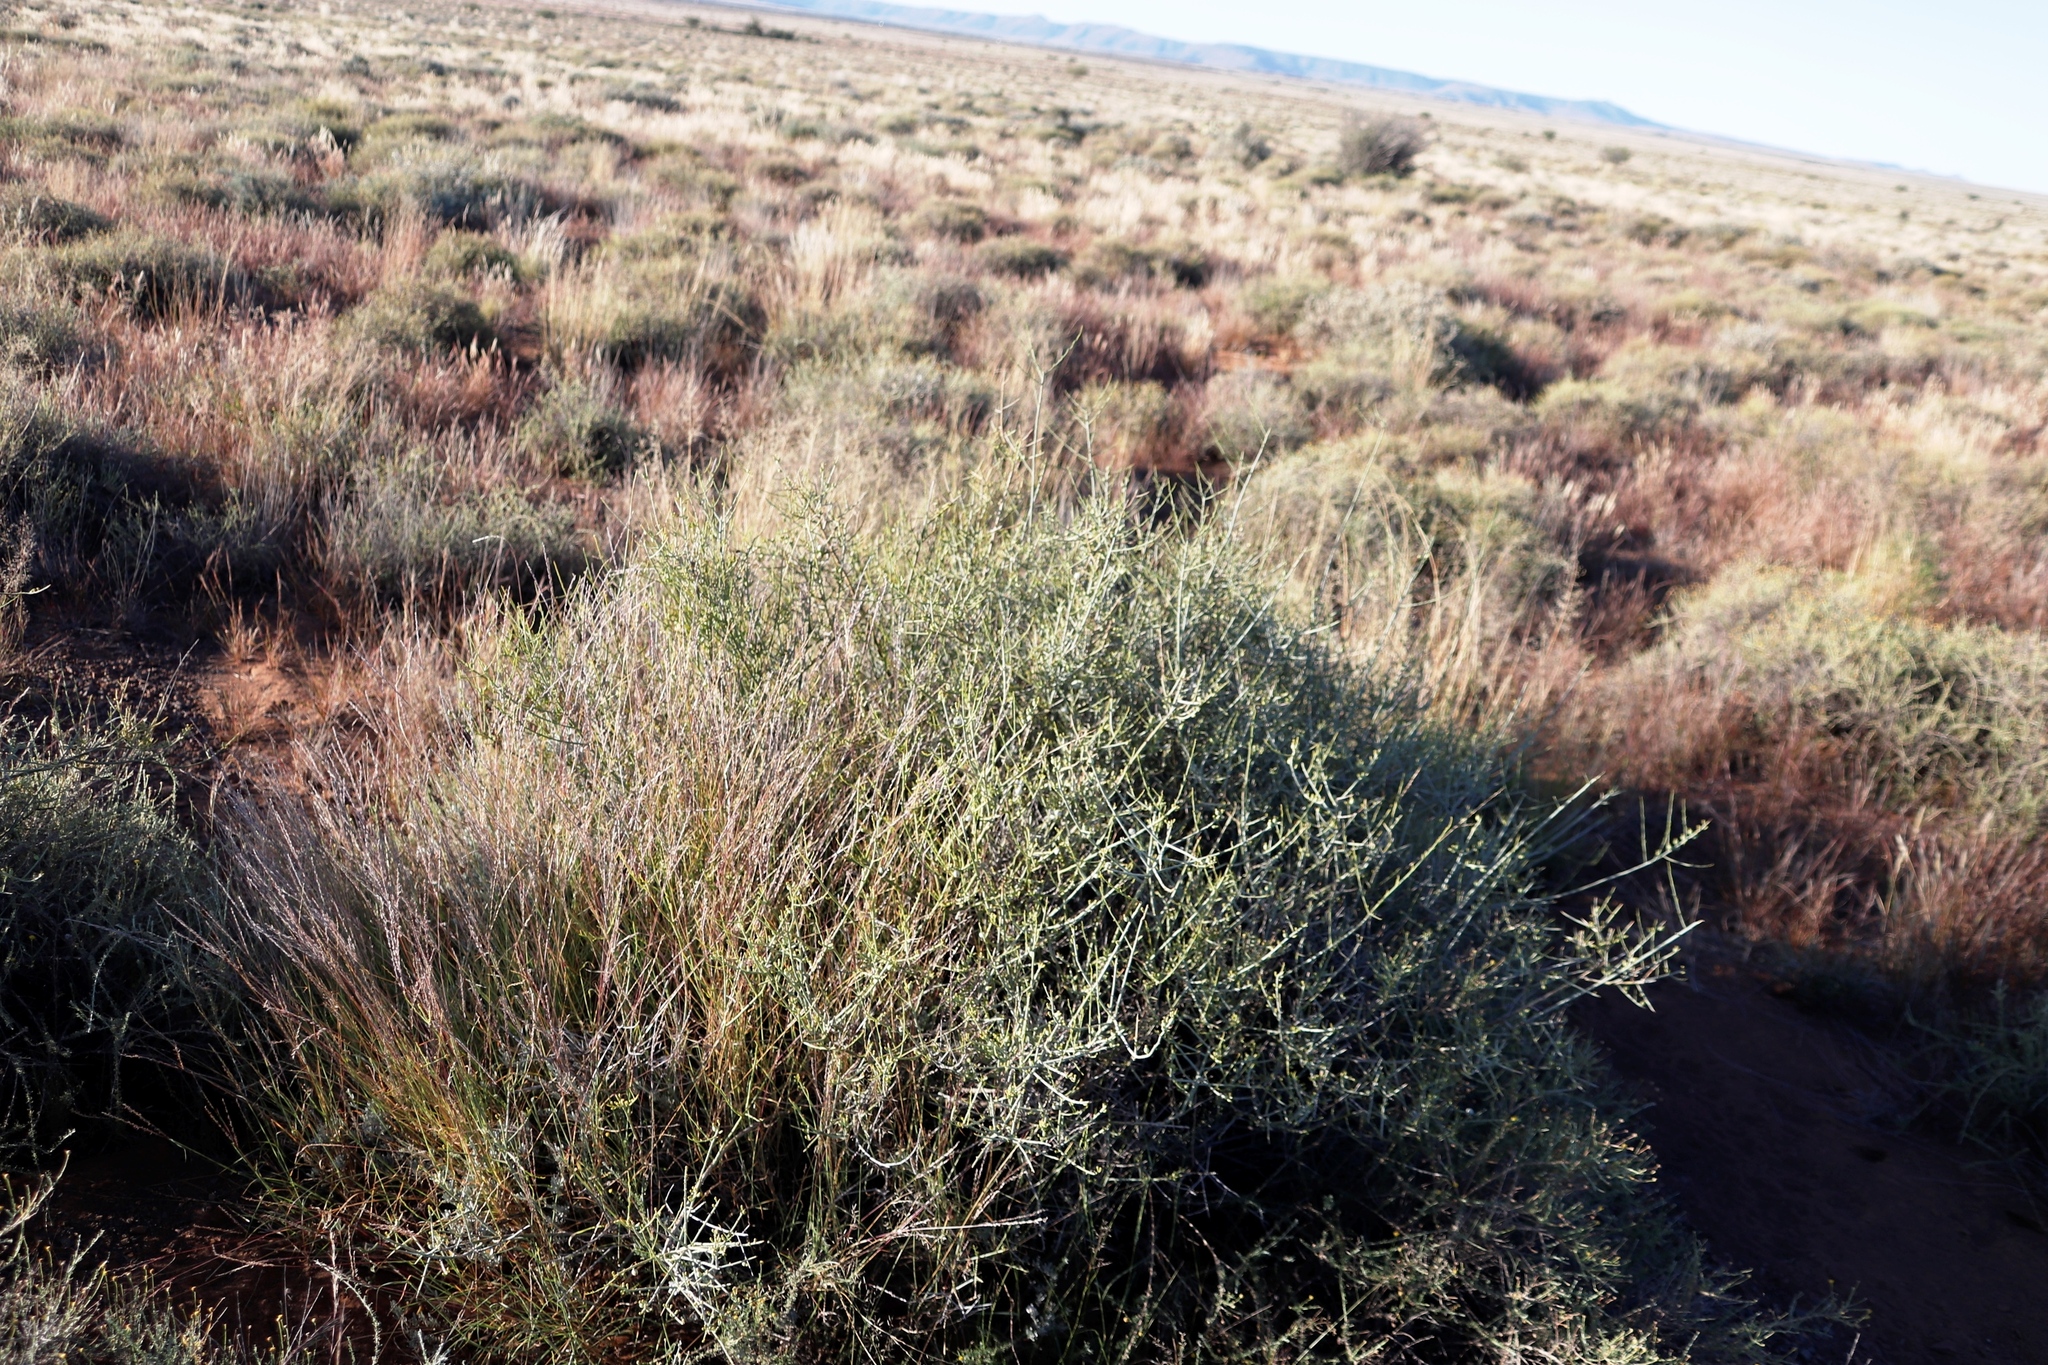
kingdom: Plantae
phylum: Tracheophyta
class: Magnoliopsida
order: Santalales
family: Thesiaceae
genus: Lacomucinaea
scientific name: Lacomucinaea lineata
